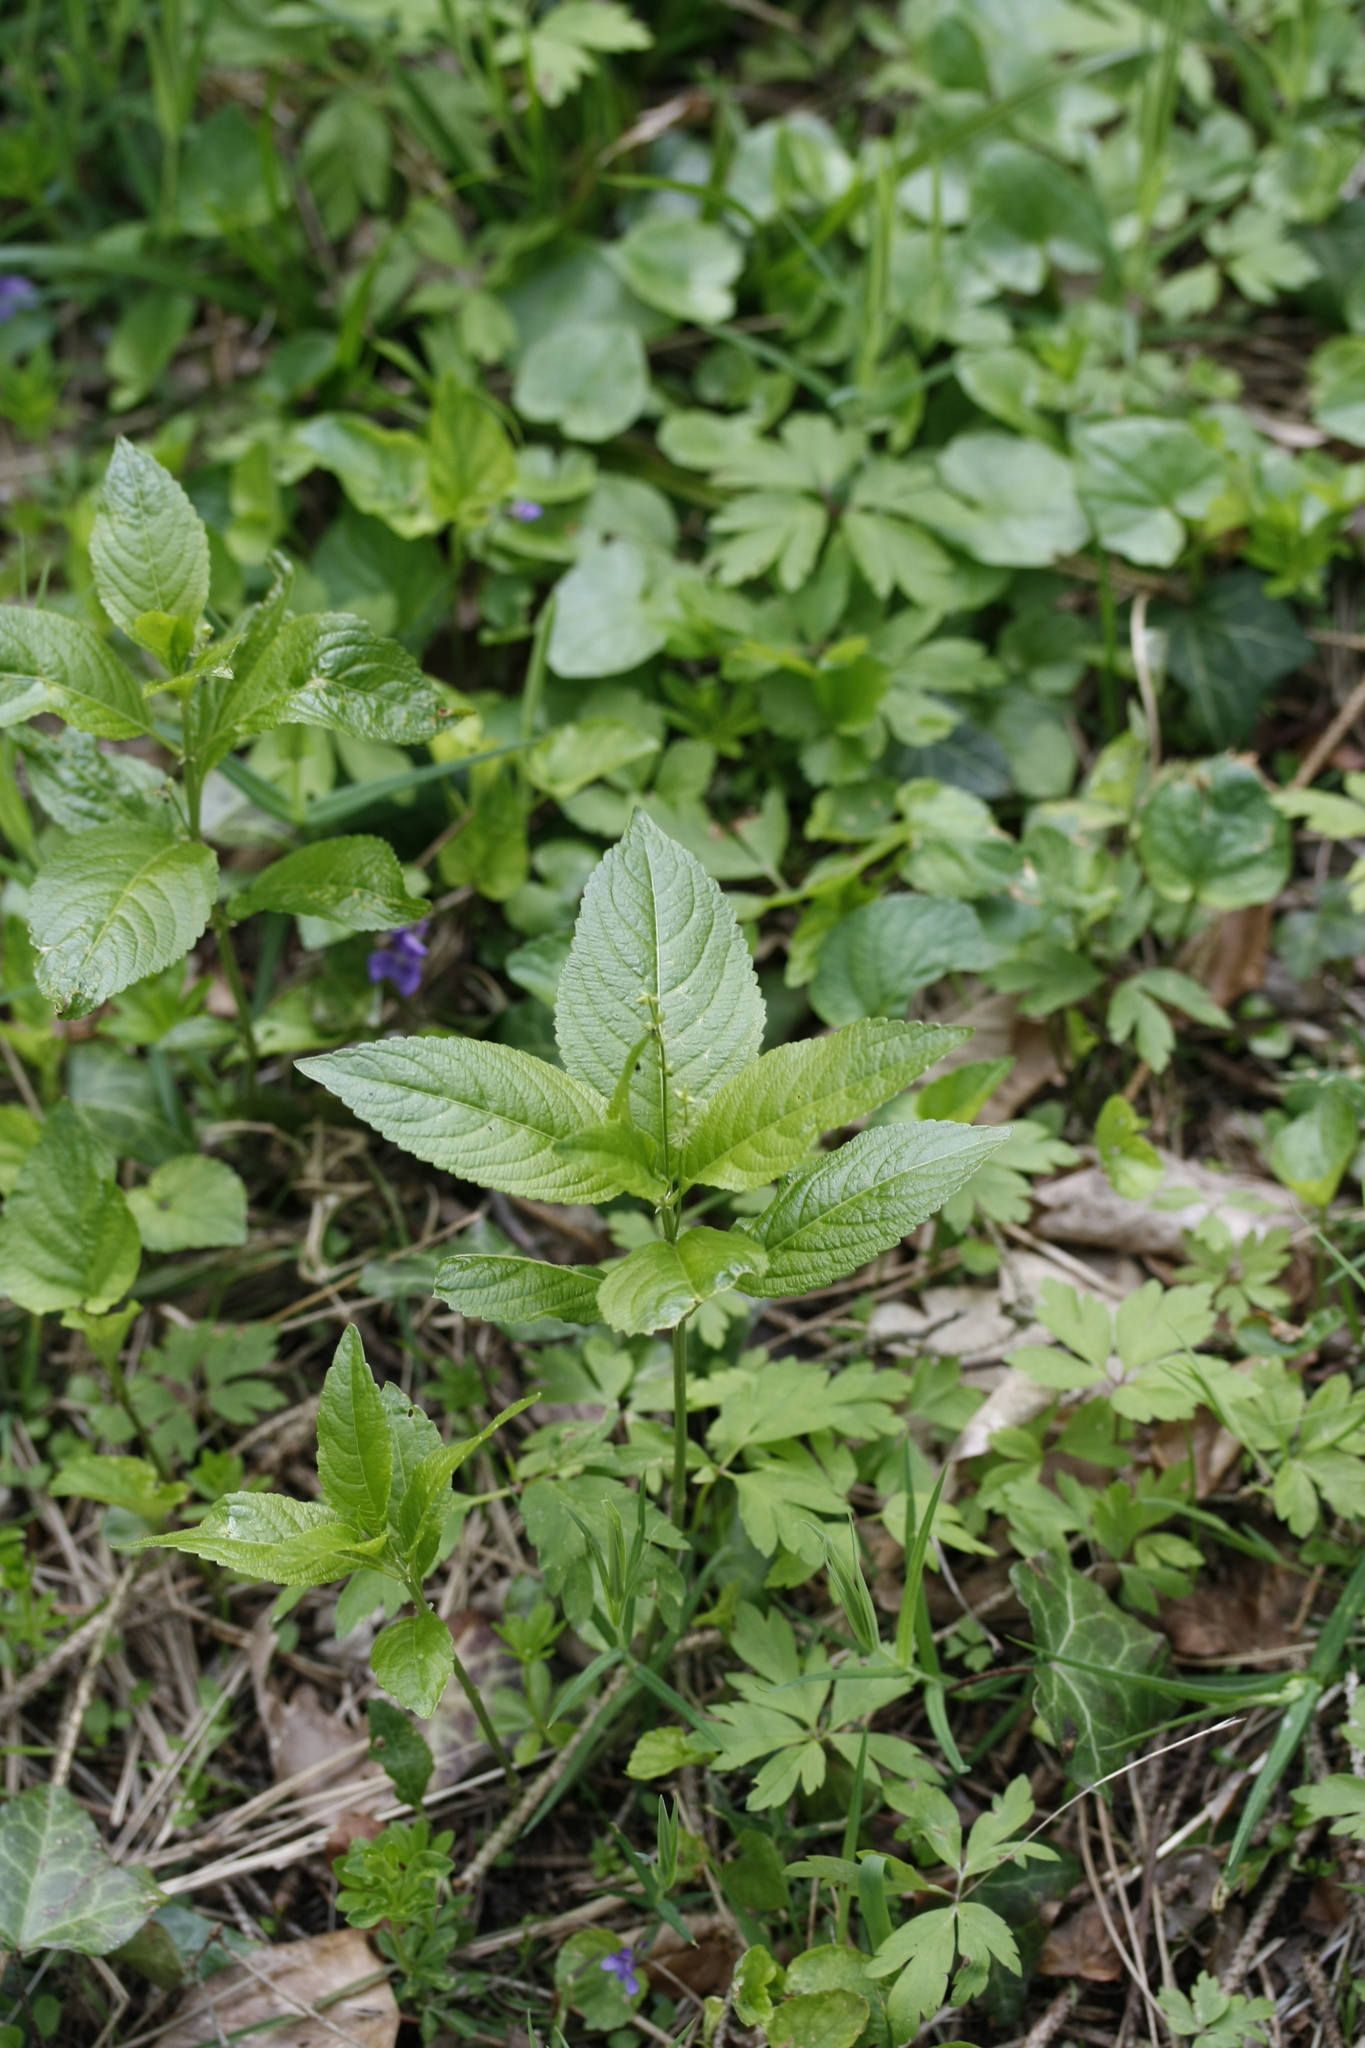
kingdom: Plantae
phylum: Tracheophyta
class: Magnoliopsida
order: Malpighiales
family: Euphorbiaceae
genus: Mercurialis
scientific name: Mercurialis perennis
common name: Dog mercury
